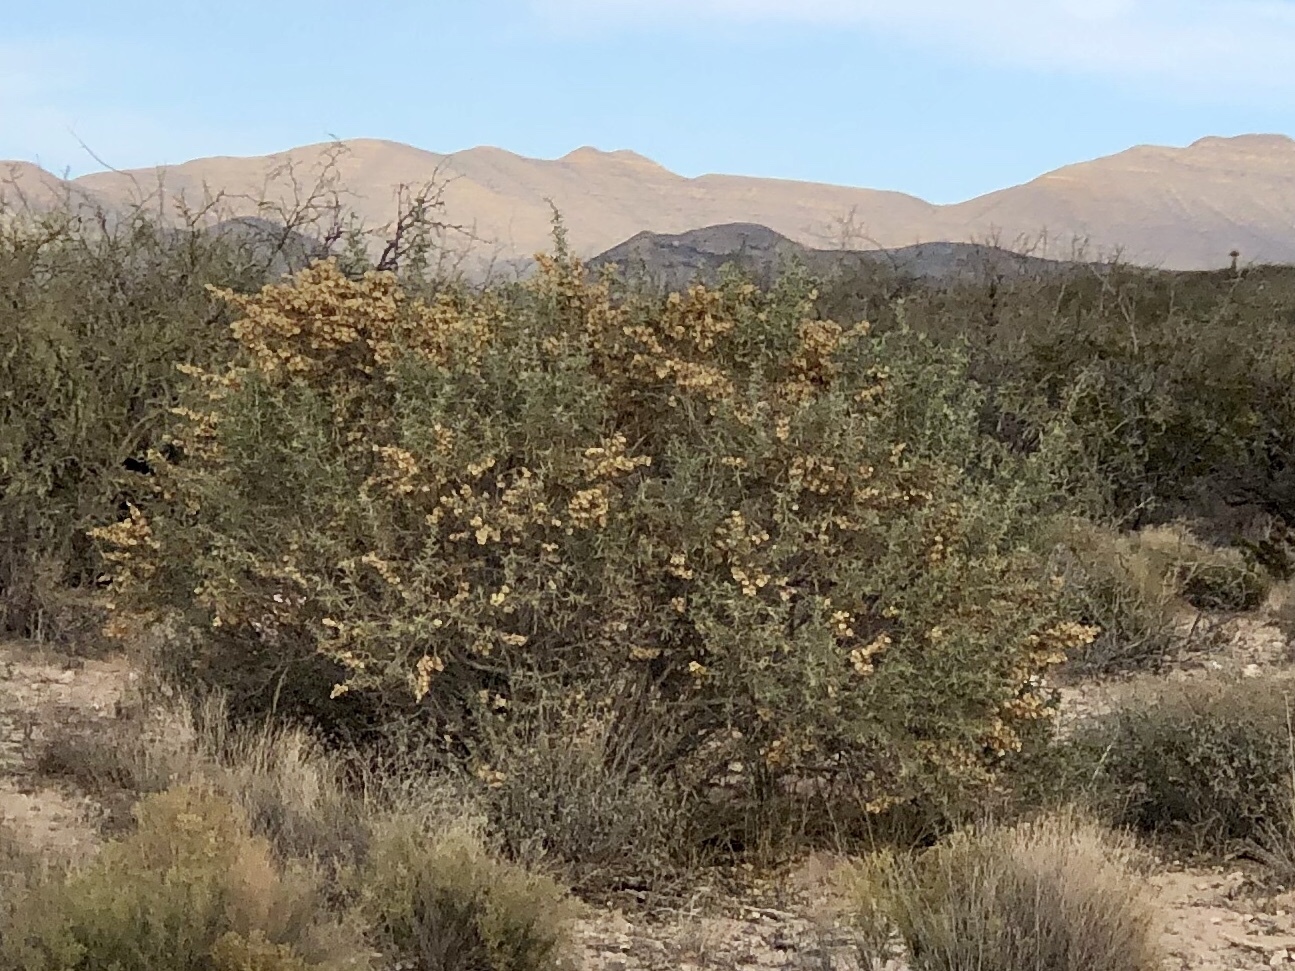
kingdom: Plantae
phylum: Tracheophyta
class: Magnoliopsida
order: Caryophyllales
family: Amaranthaceae
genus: Atriplex
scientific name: Atriplex canescens
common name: Four-wing saltbush
